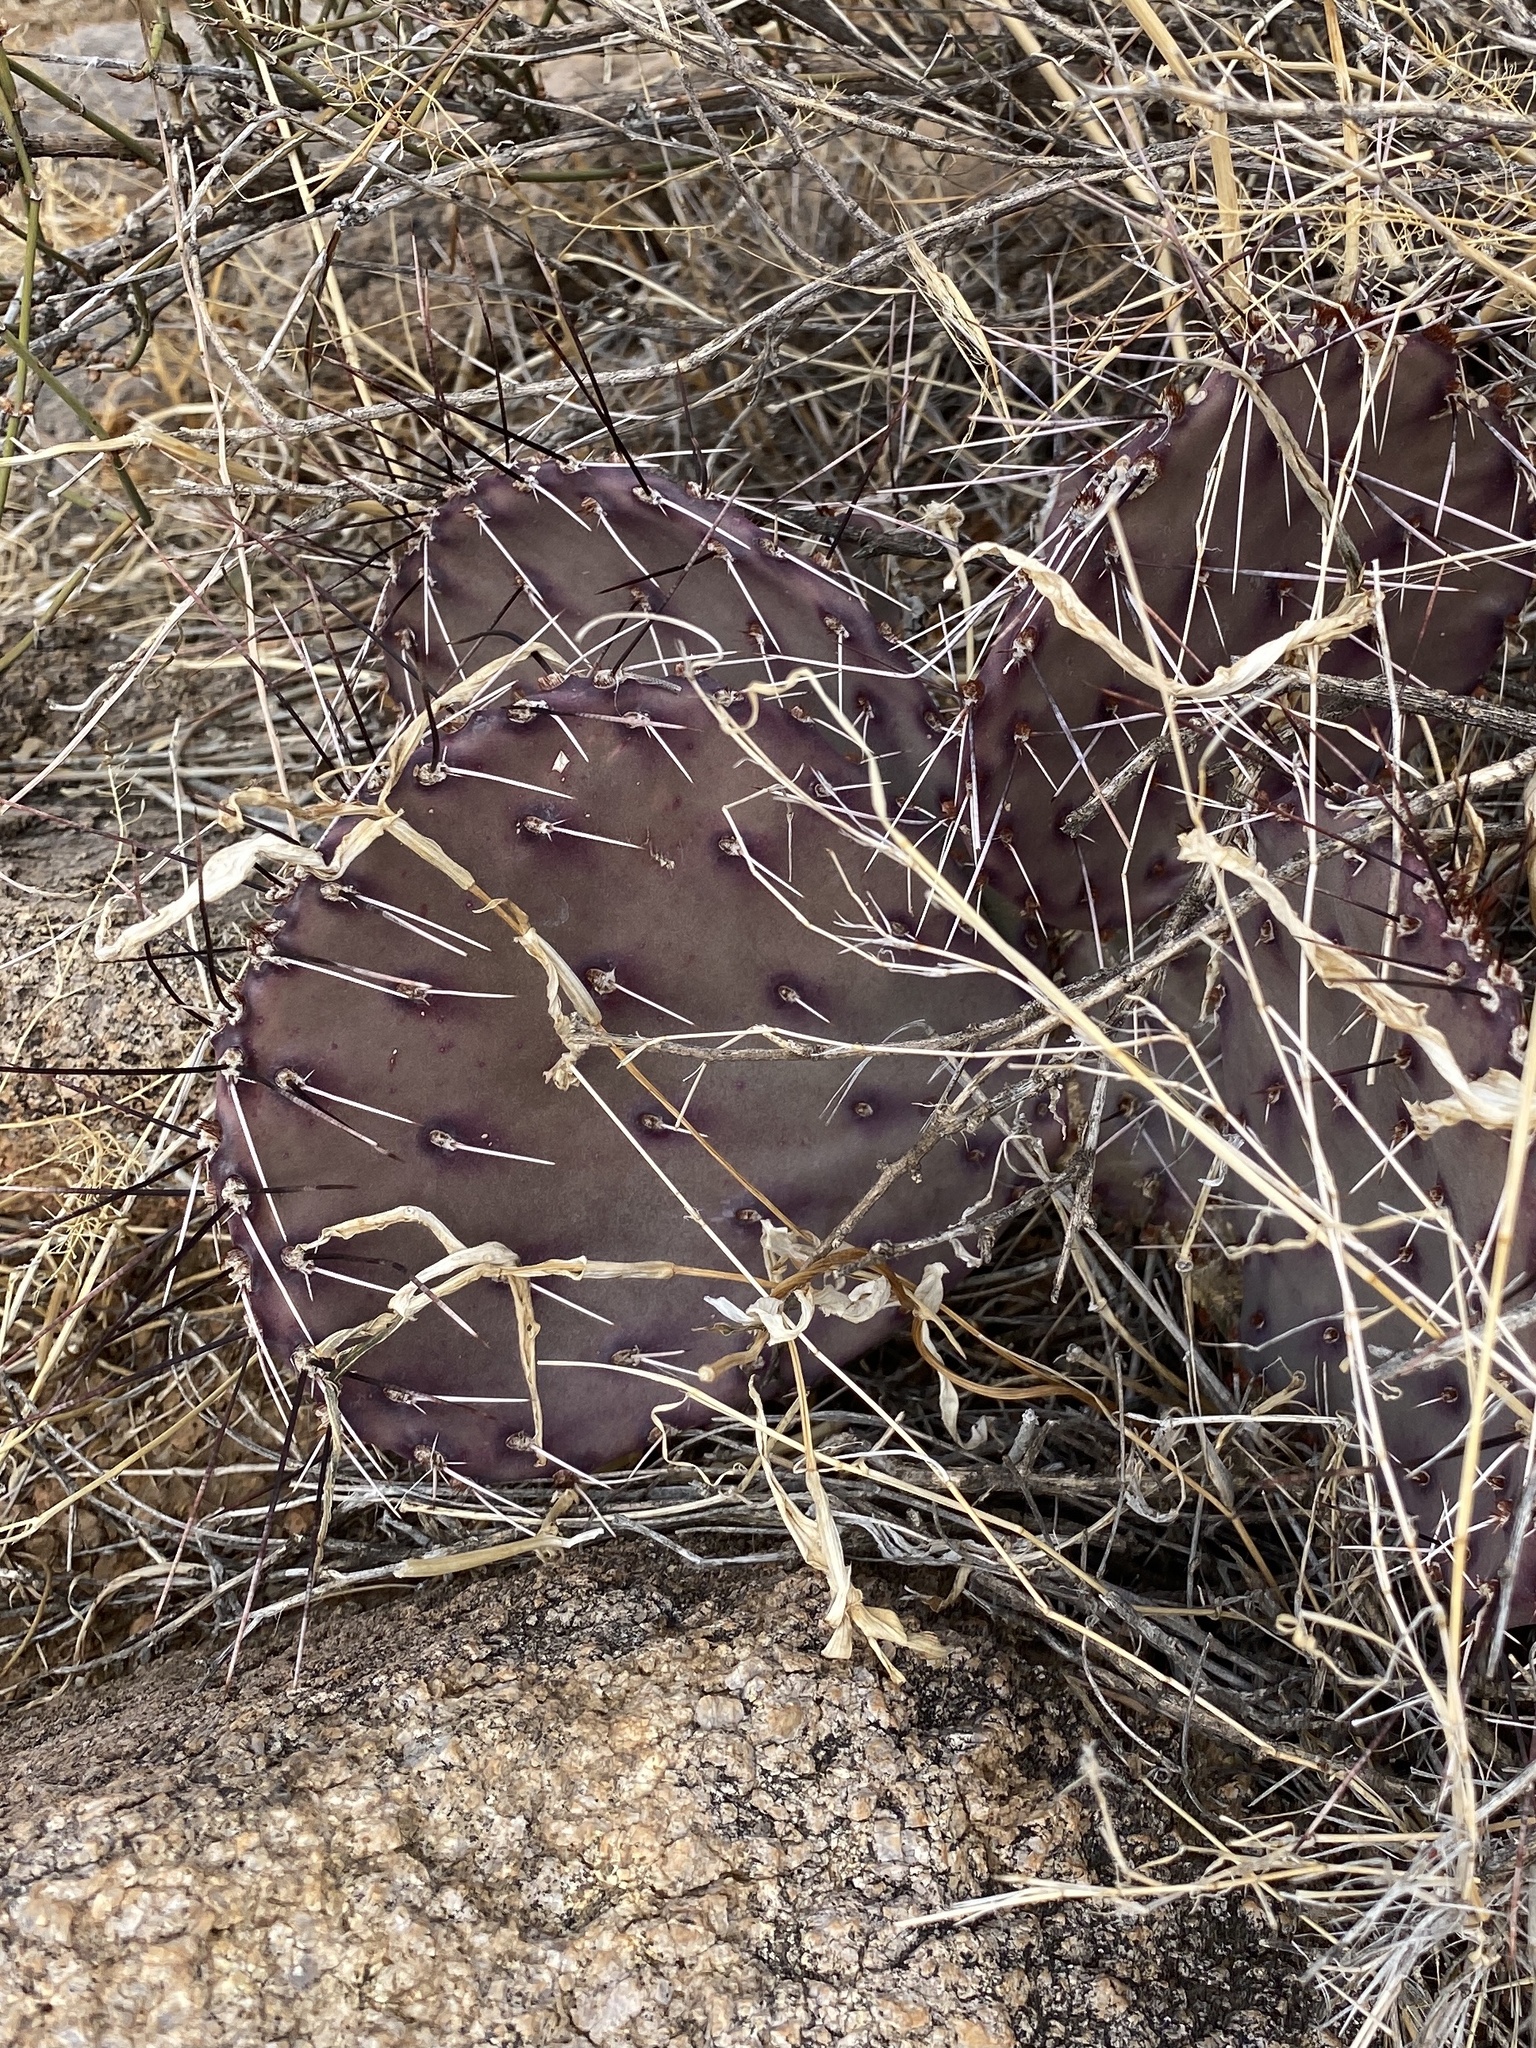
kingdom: Plantae
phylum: Tracheophyta
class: Magnoliopsida
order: Caryophyllales
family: Cactaceae
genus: Opuntia
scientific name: Opuntia macrocentra
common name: Purple prickly-pear
